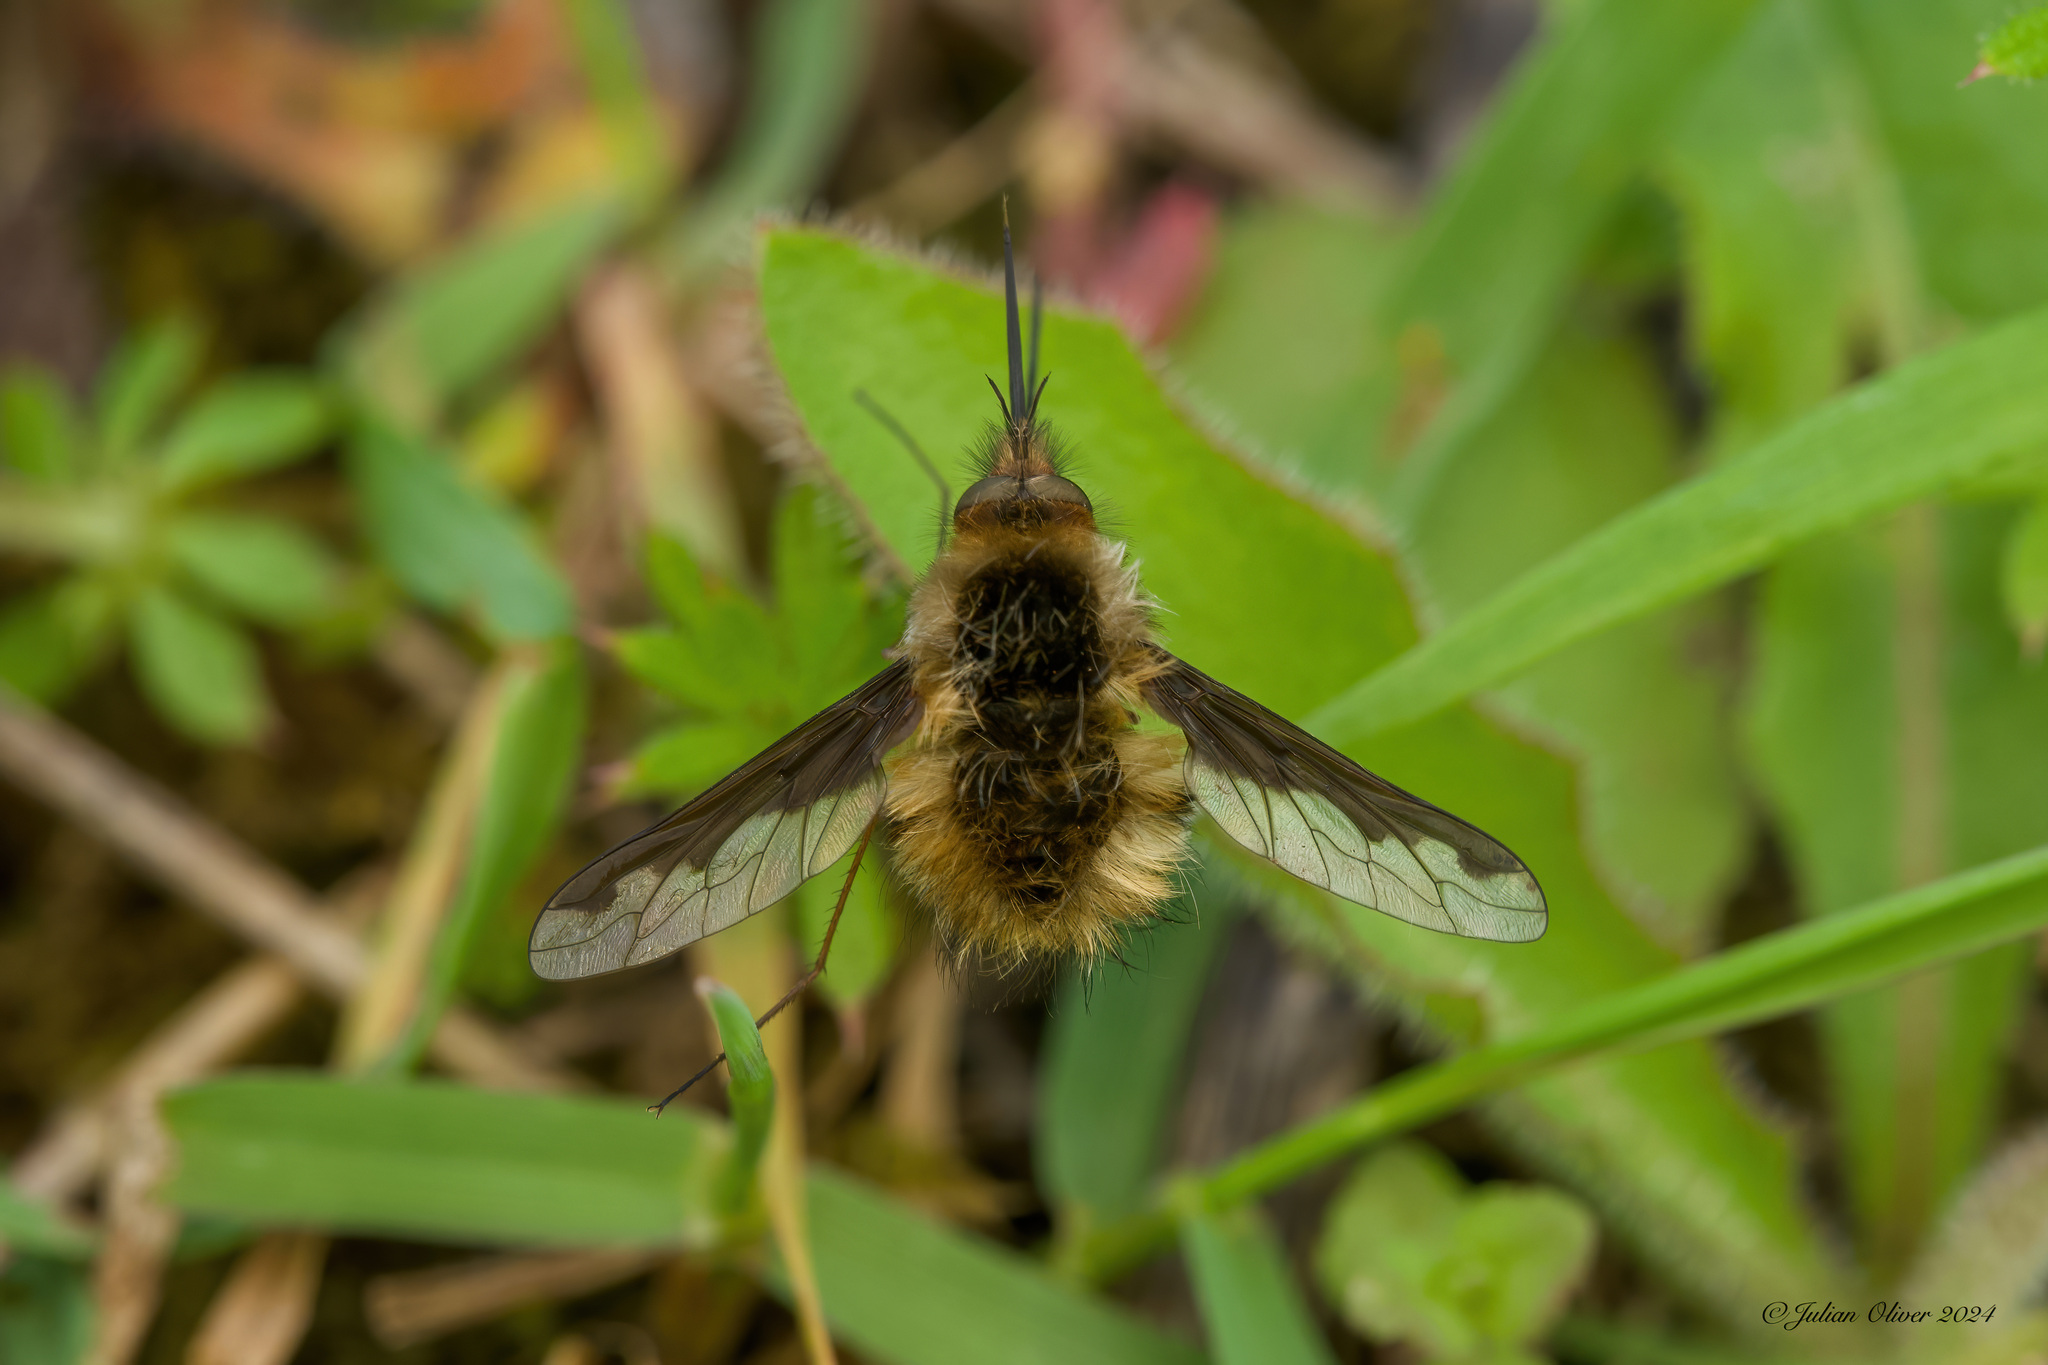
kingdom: Animalia
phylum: Arthropoda
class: Insecta
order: Diptera
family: Bombyliidae
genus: Bombylius
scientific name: Bombylius major
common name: Bee fly
